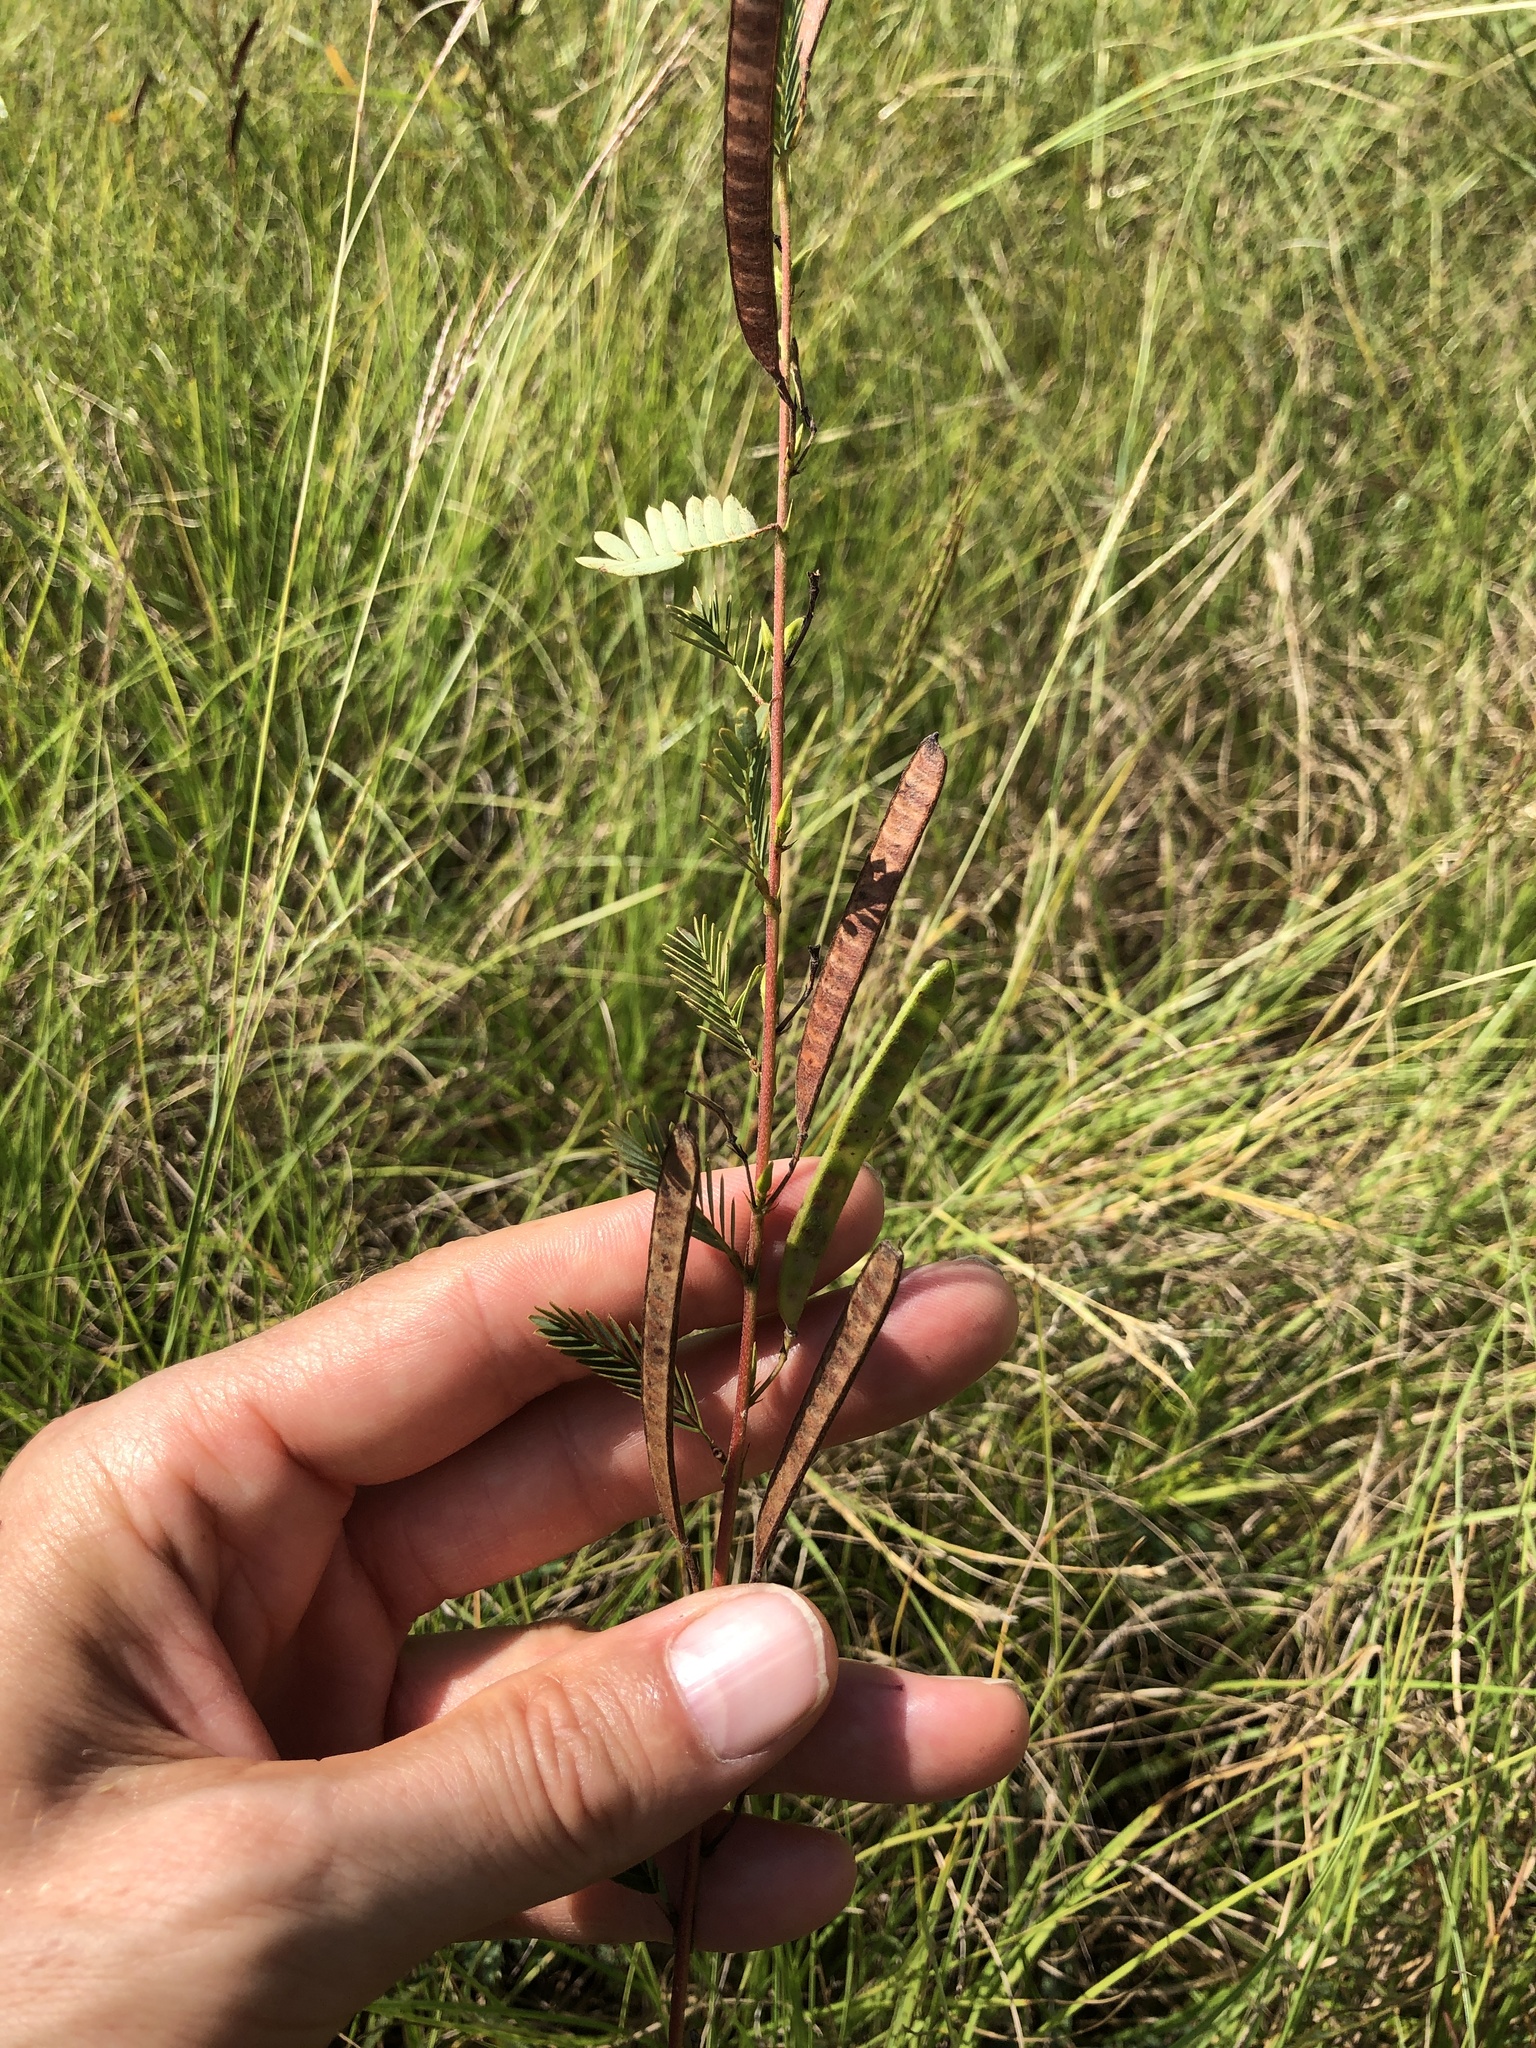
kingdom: Plantae
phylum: Tracheophyta
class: Magnoliopsida
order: Fabales
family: Fabaceae
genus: Chamaecrista
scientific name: Chamaecrista fasciculata
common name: Golden cassia
